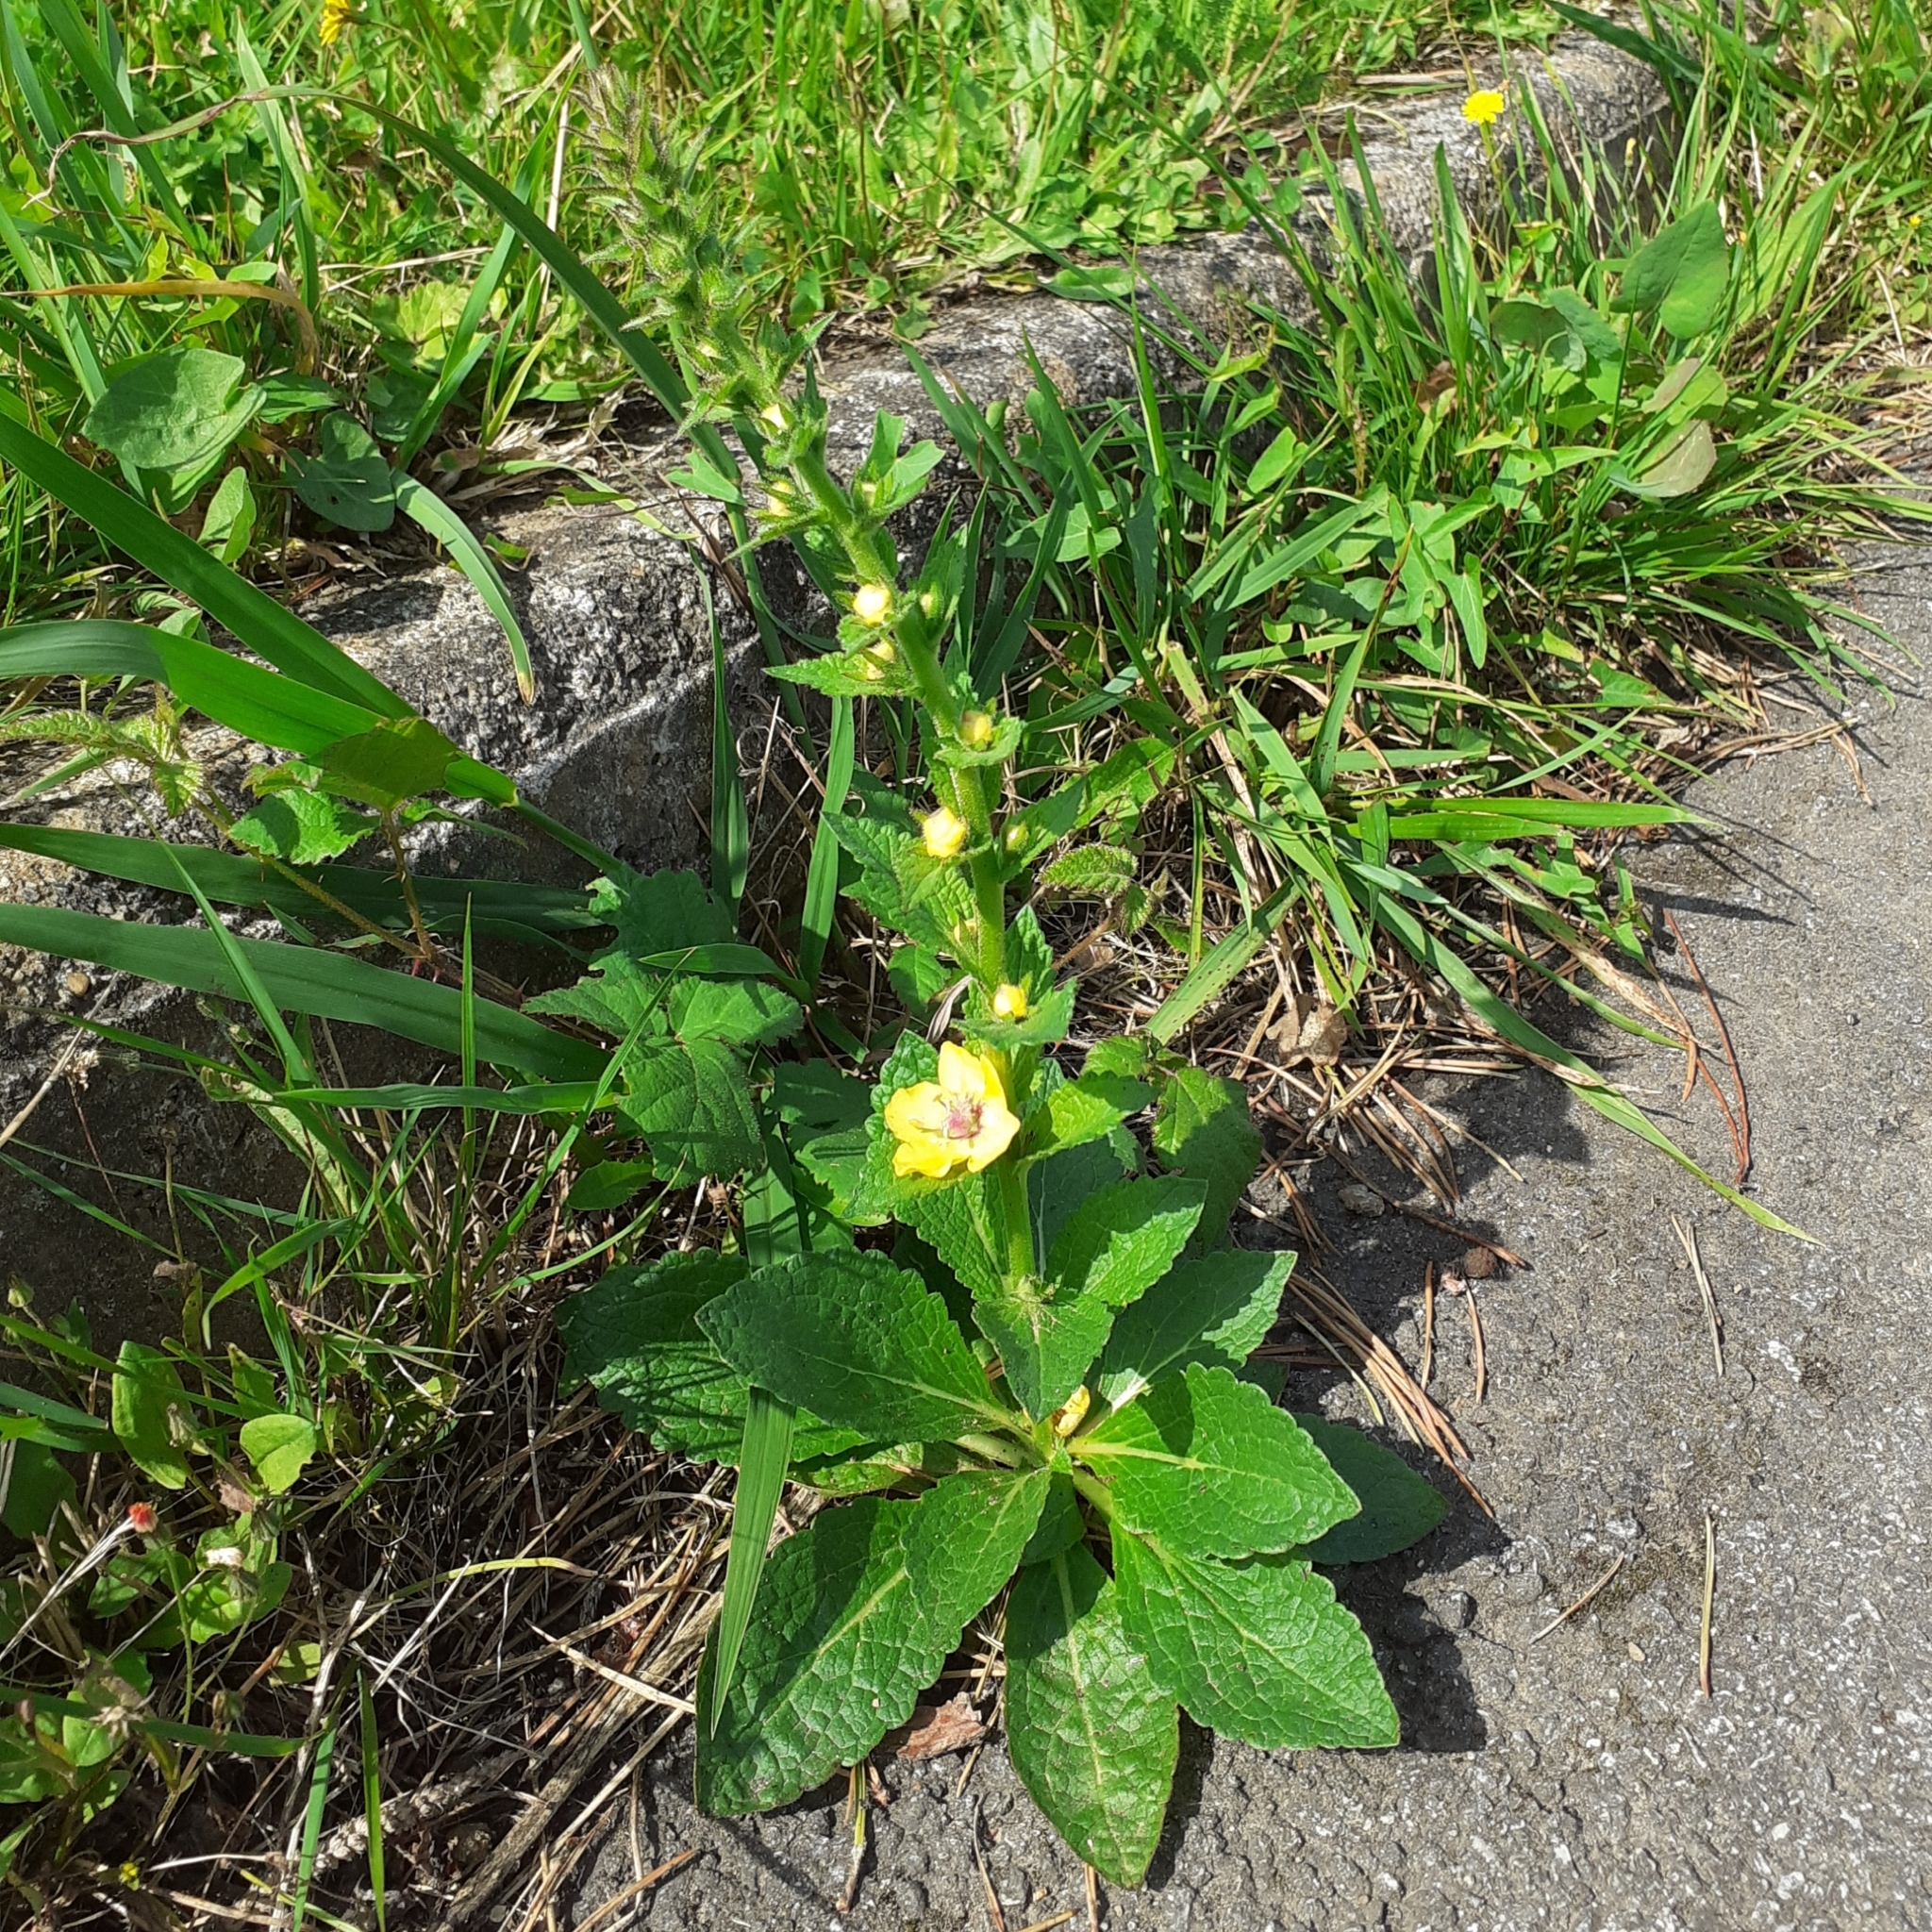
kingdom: Plantae
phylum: Tracheophyta
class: Magnoliopsida
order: Lamiales
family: Scrophulariaceae
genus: Verbascum
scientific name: Verbascum virgatum
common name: Twiggy mullein
